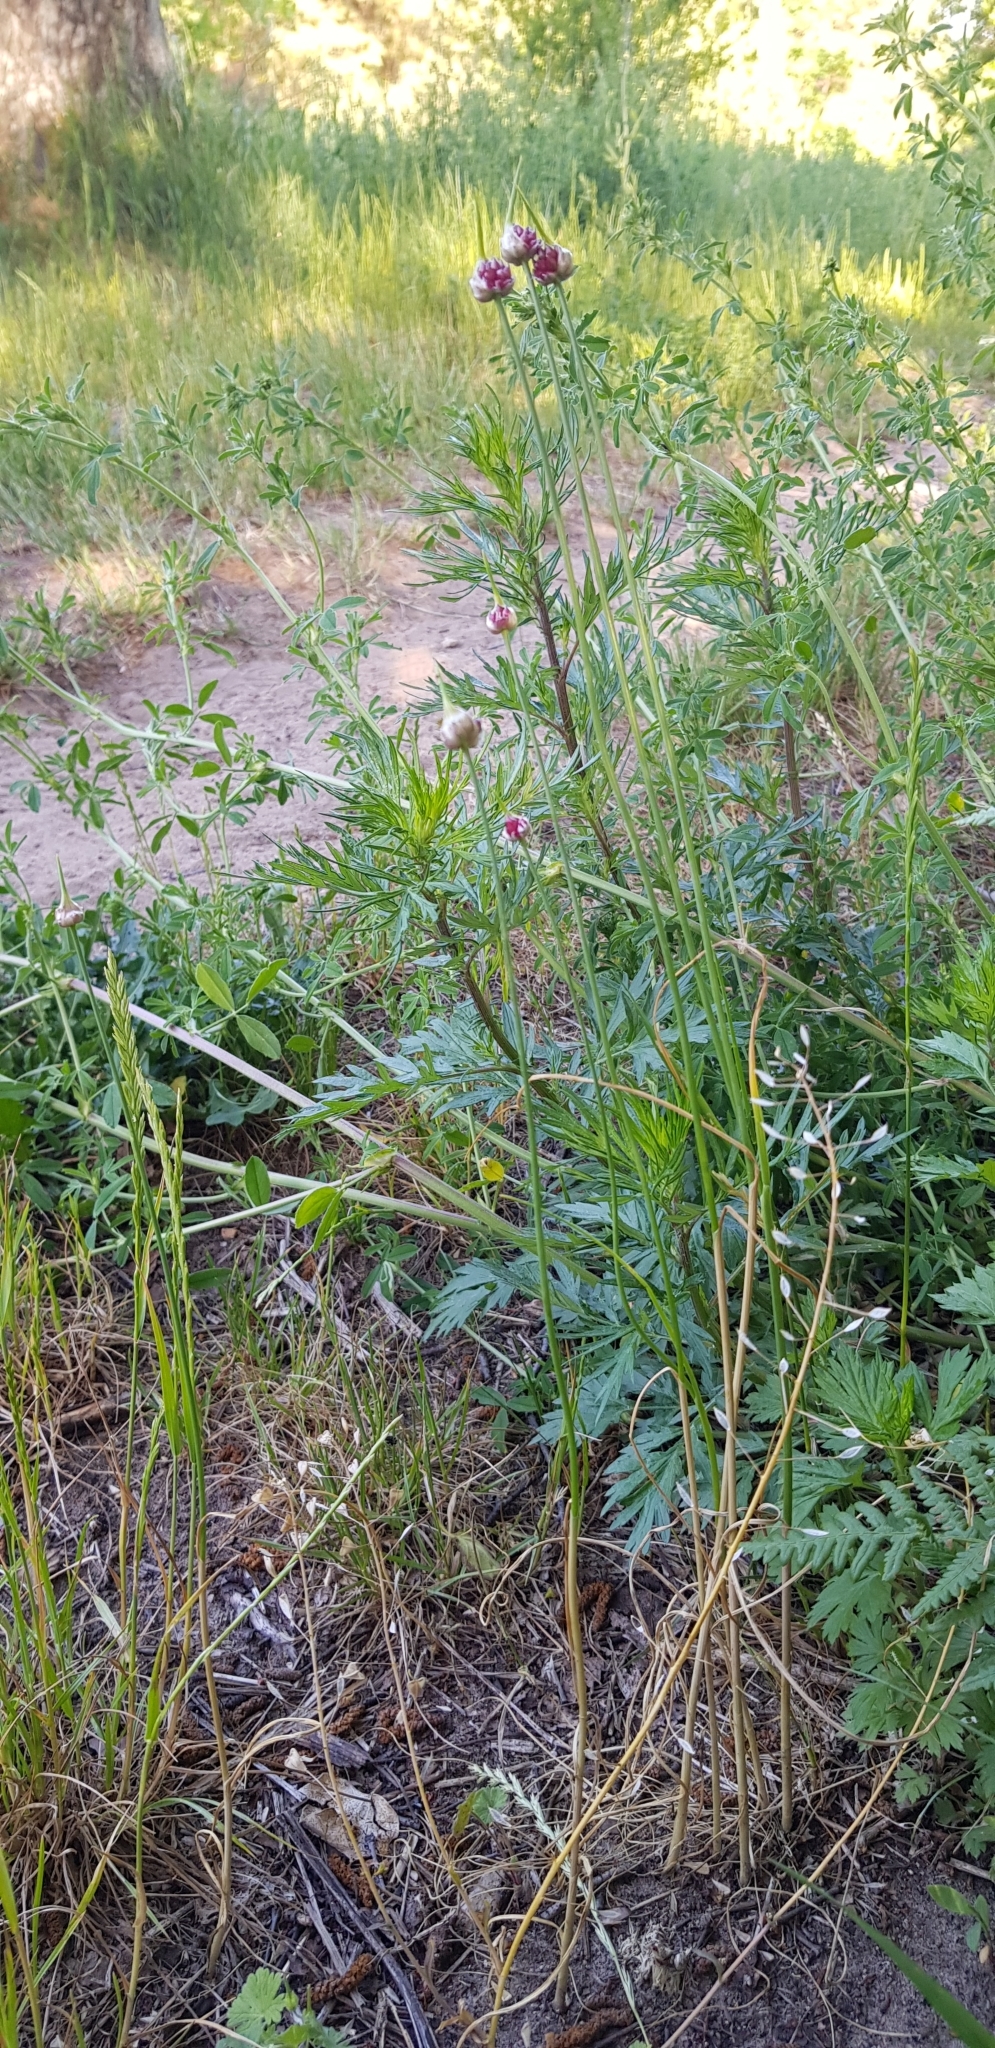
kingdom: Plantae
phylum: Tracheophyta
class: Liliopsida
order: Asparagales
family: Amaryllidaceae
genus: Allium
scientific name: Allium vineale
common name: Crow garlic
